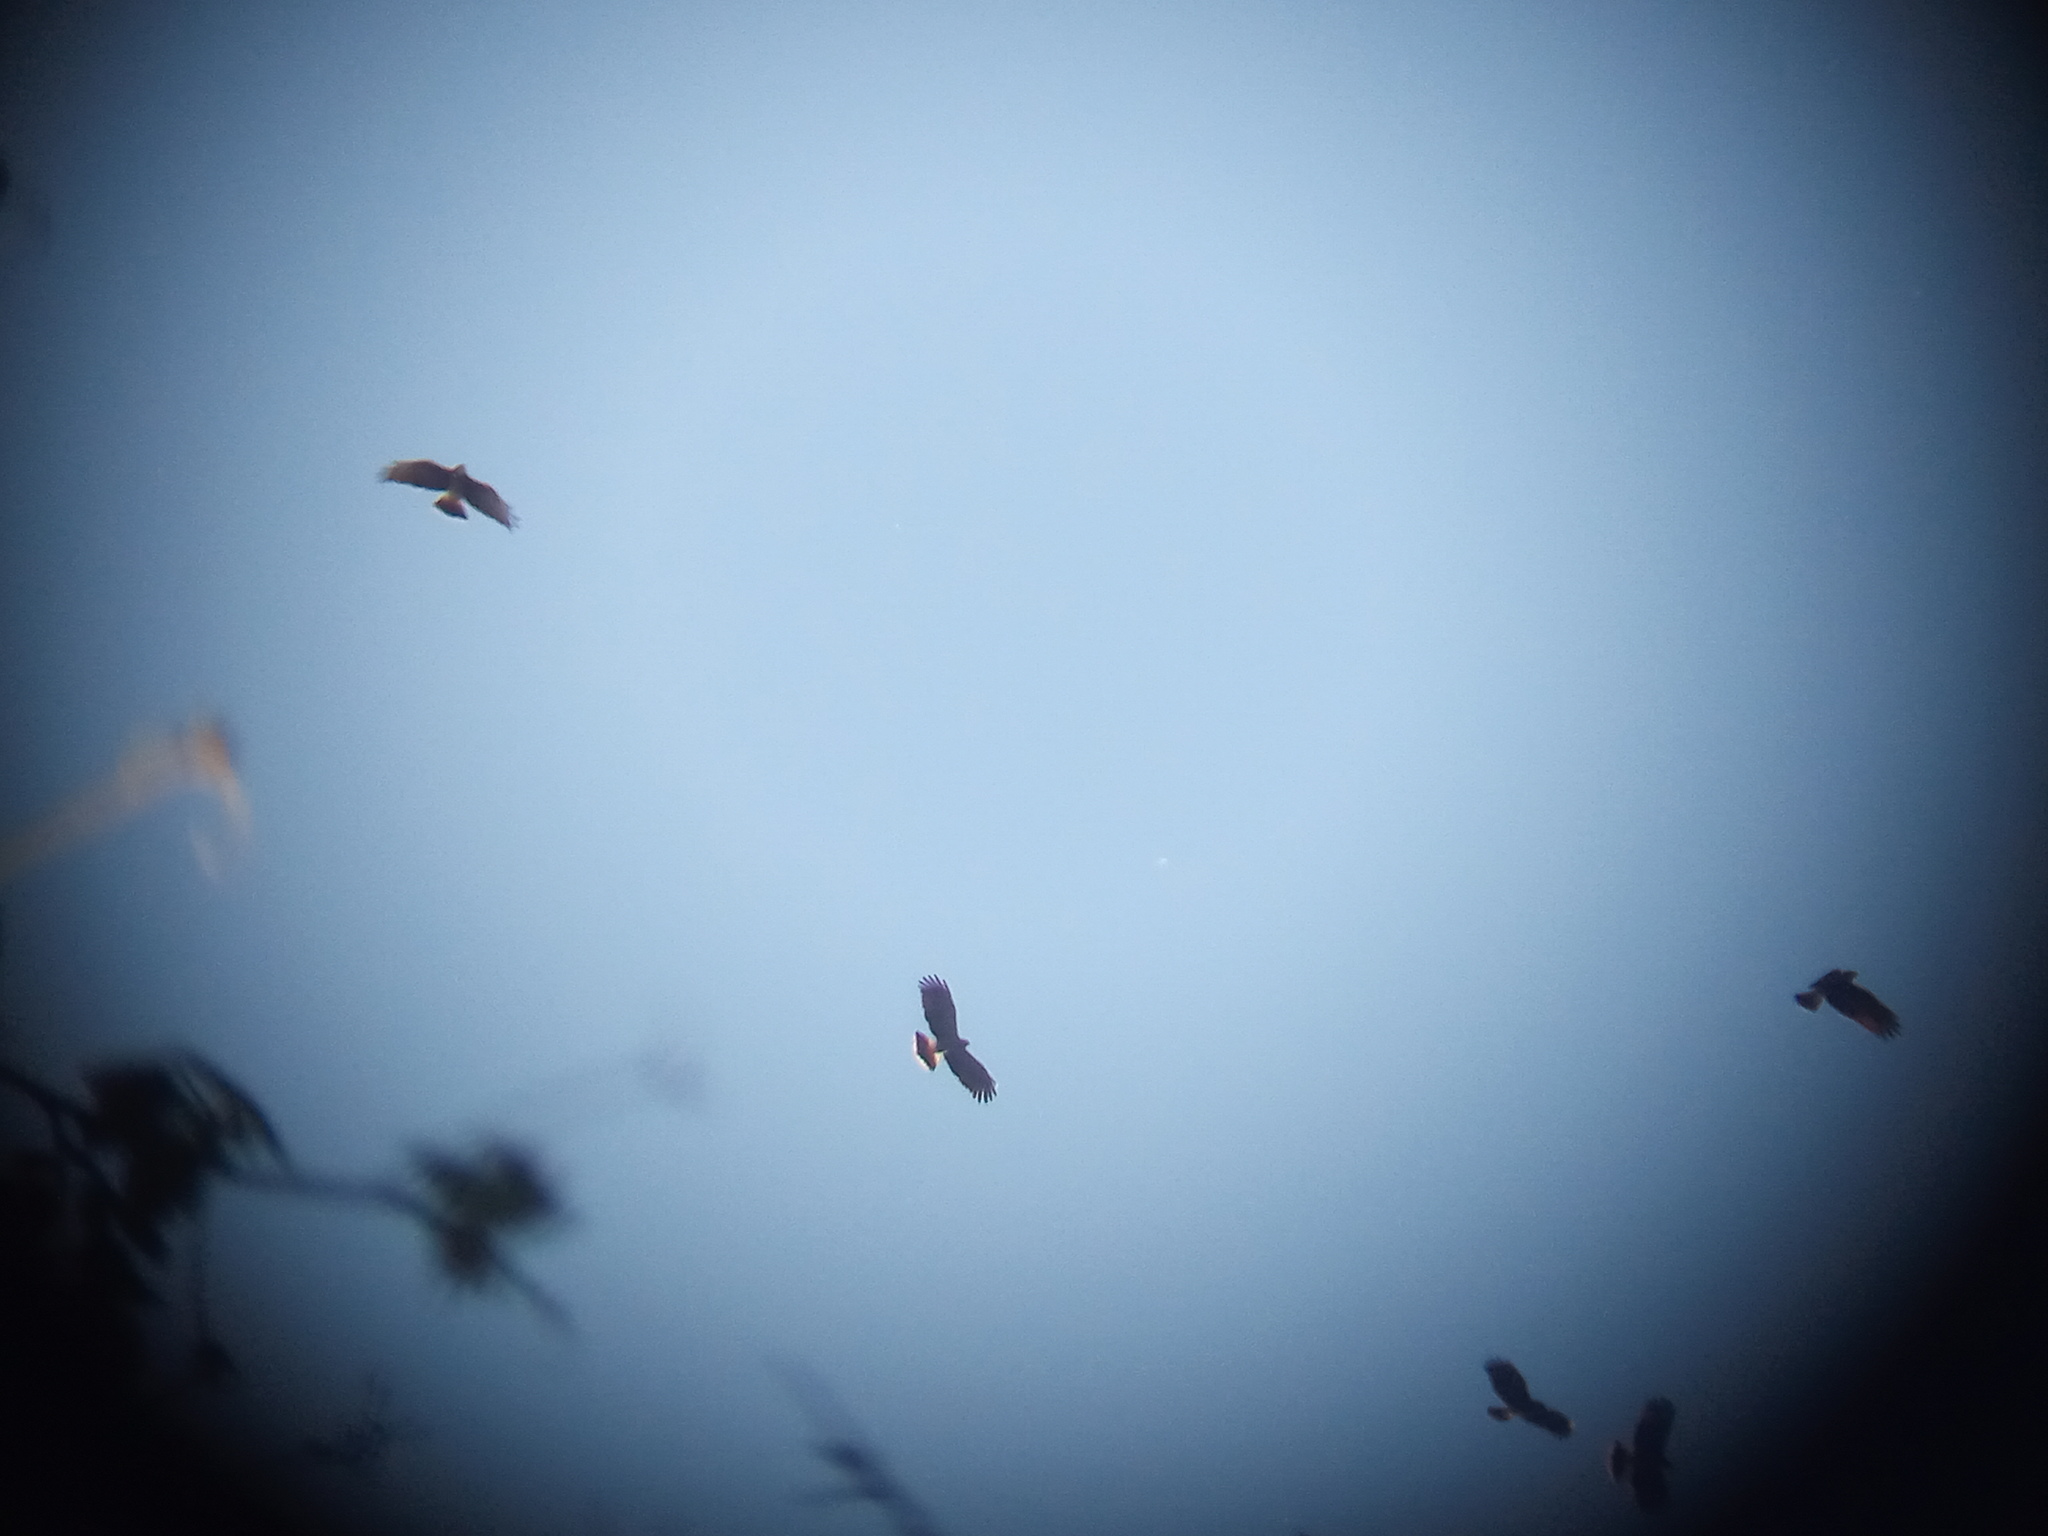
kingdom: Animalia
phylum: Chordata
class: Aves
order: Accipitriformes
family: Accipitridae
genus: Rostrhamus
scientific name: Rostrhamus sociabilis
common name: Snail kite
